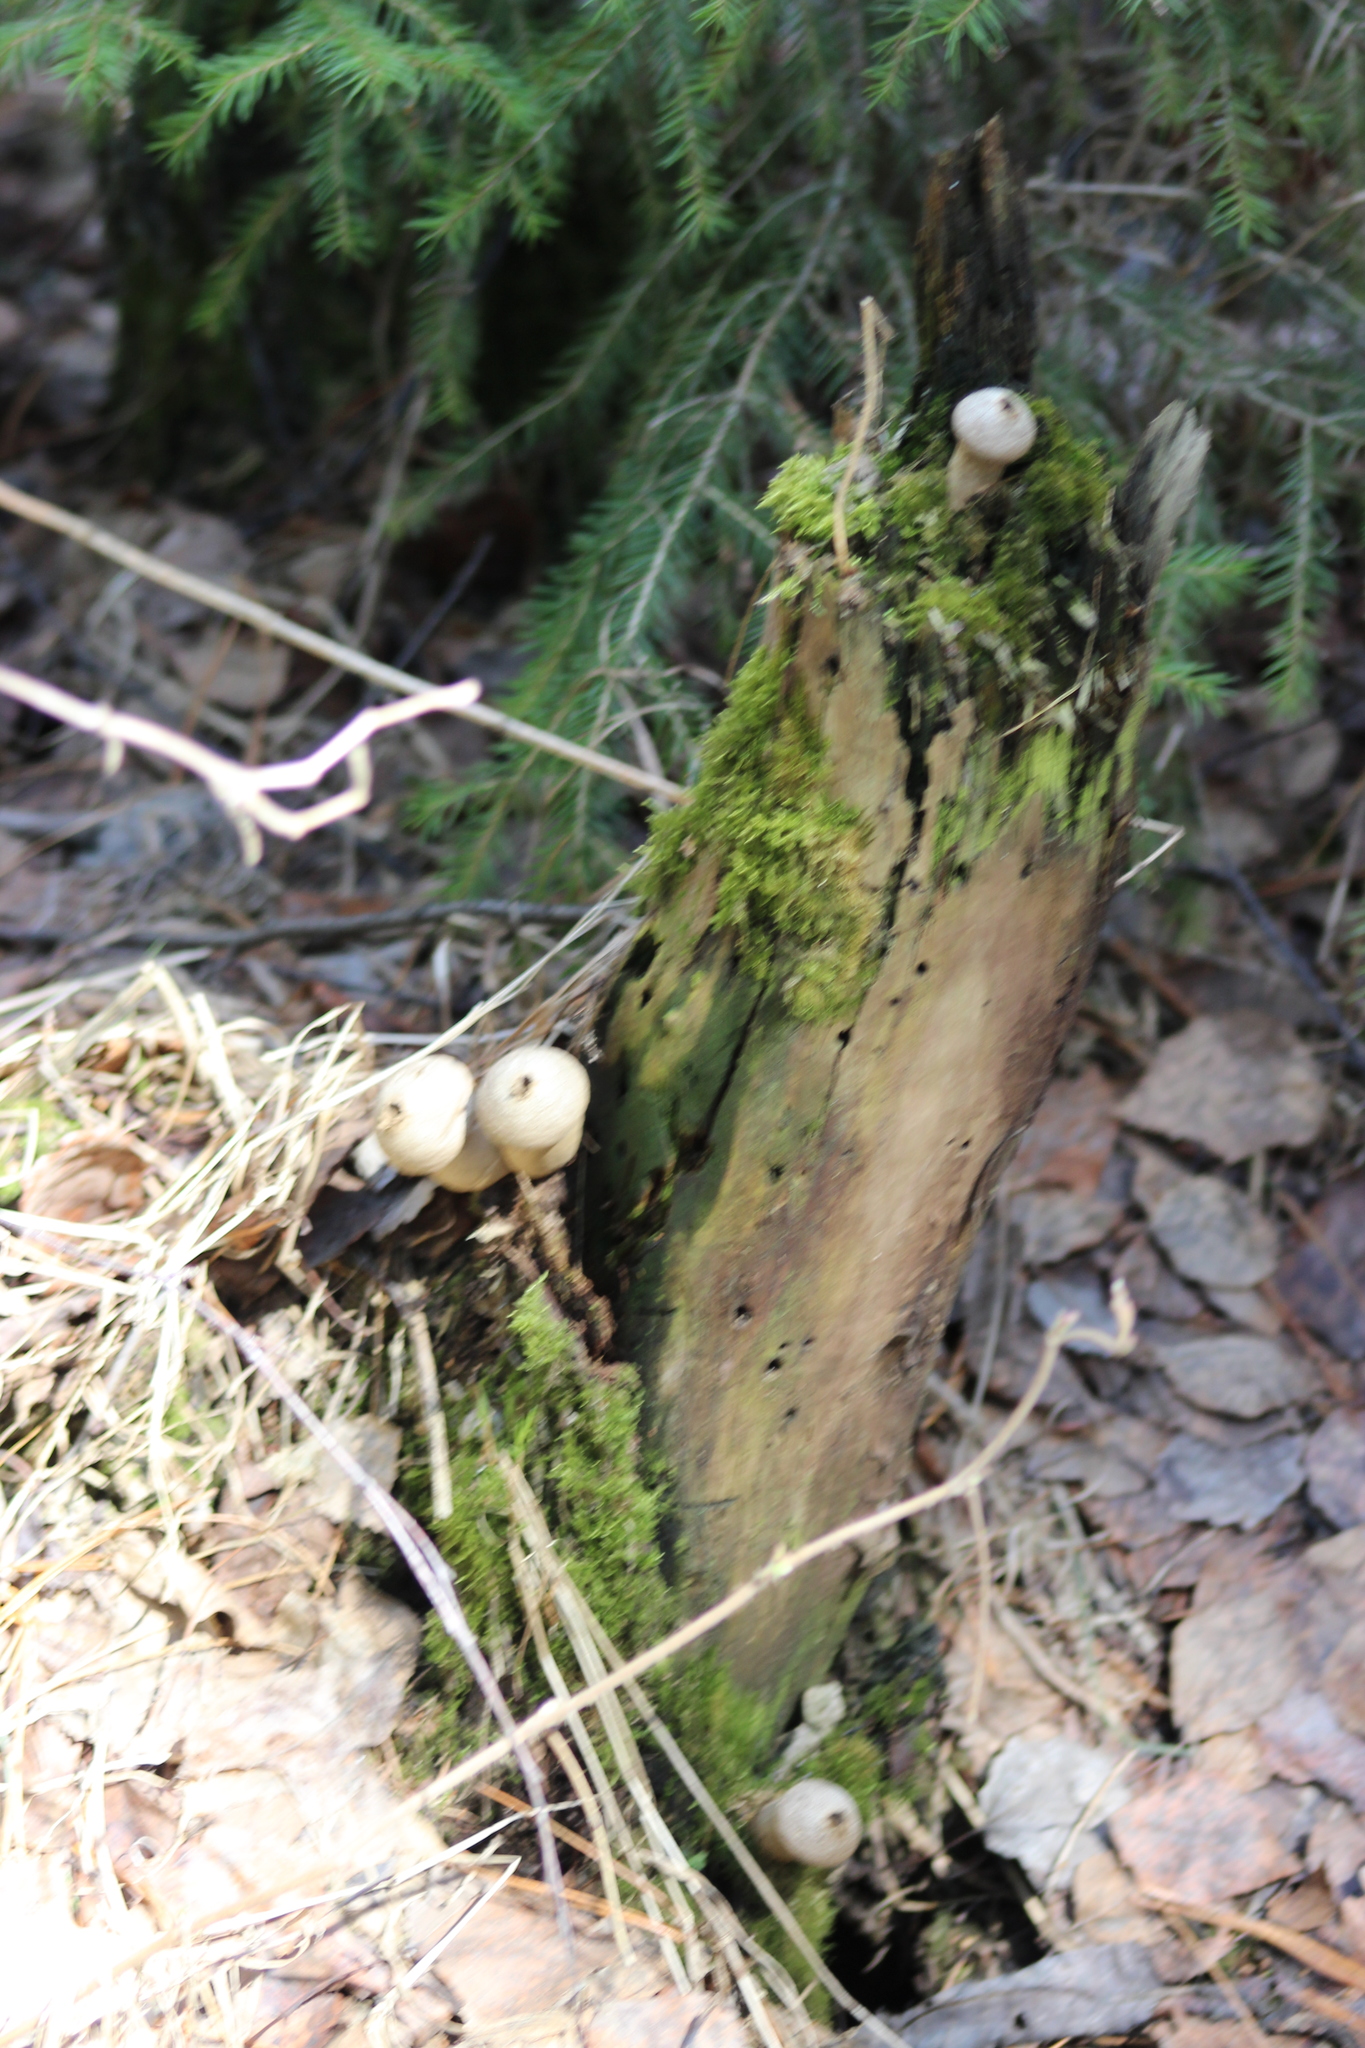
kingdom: Fungi
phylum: Basidiomycota
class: Agaricomycetes
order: Agaricales
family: Lycoperdaceae
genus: Lycoperdon
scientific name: Lycoperdon perlatum
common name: Common puffball
